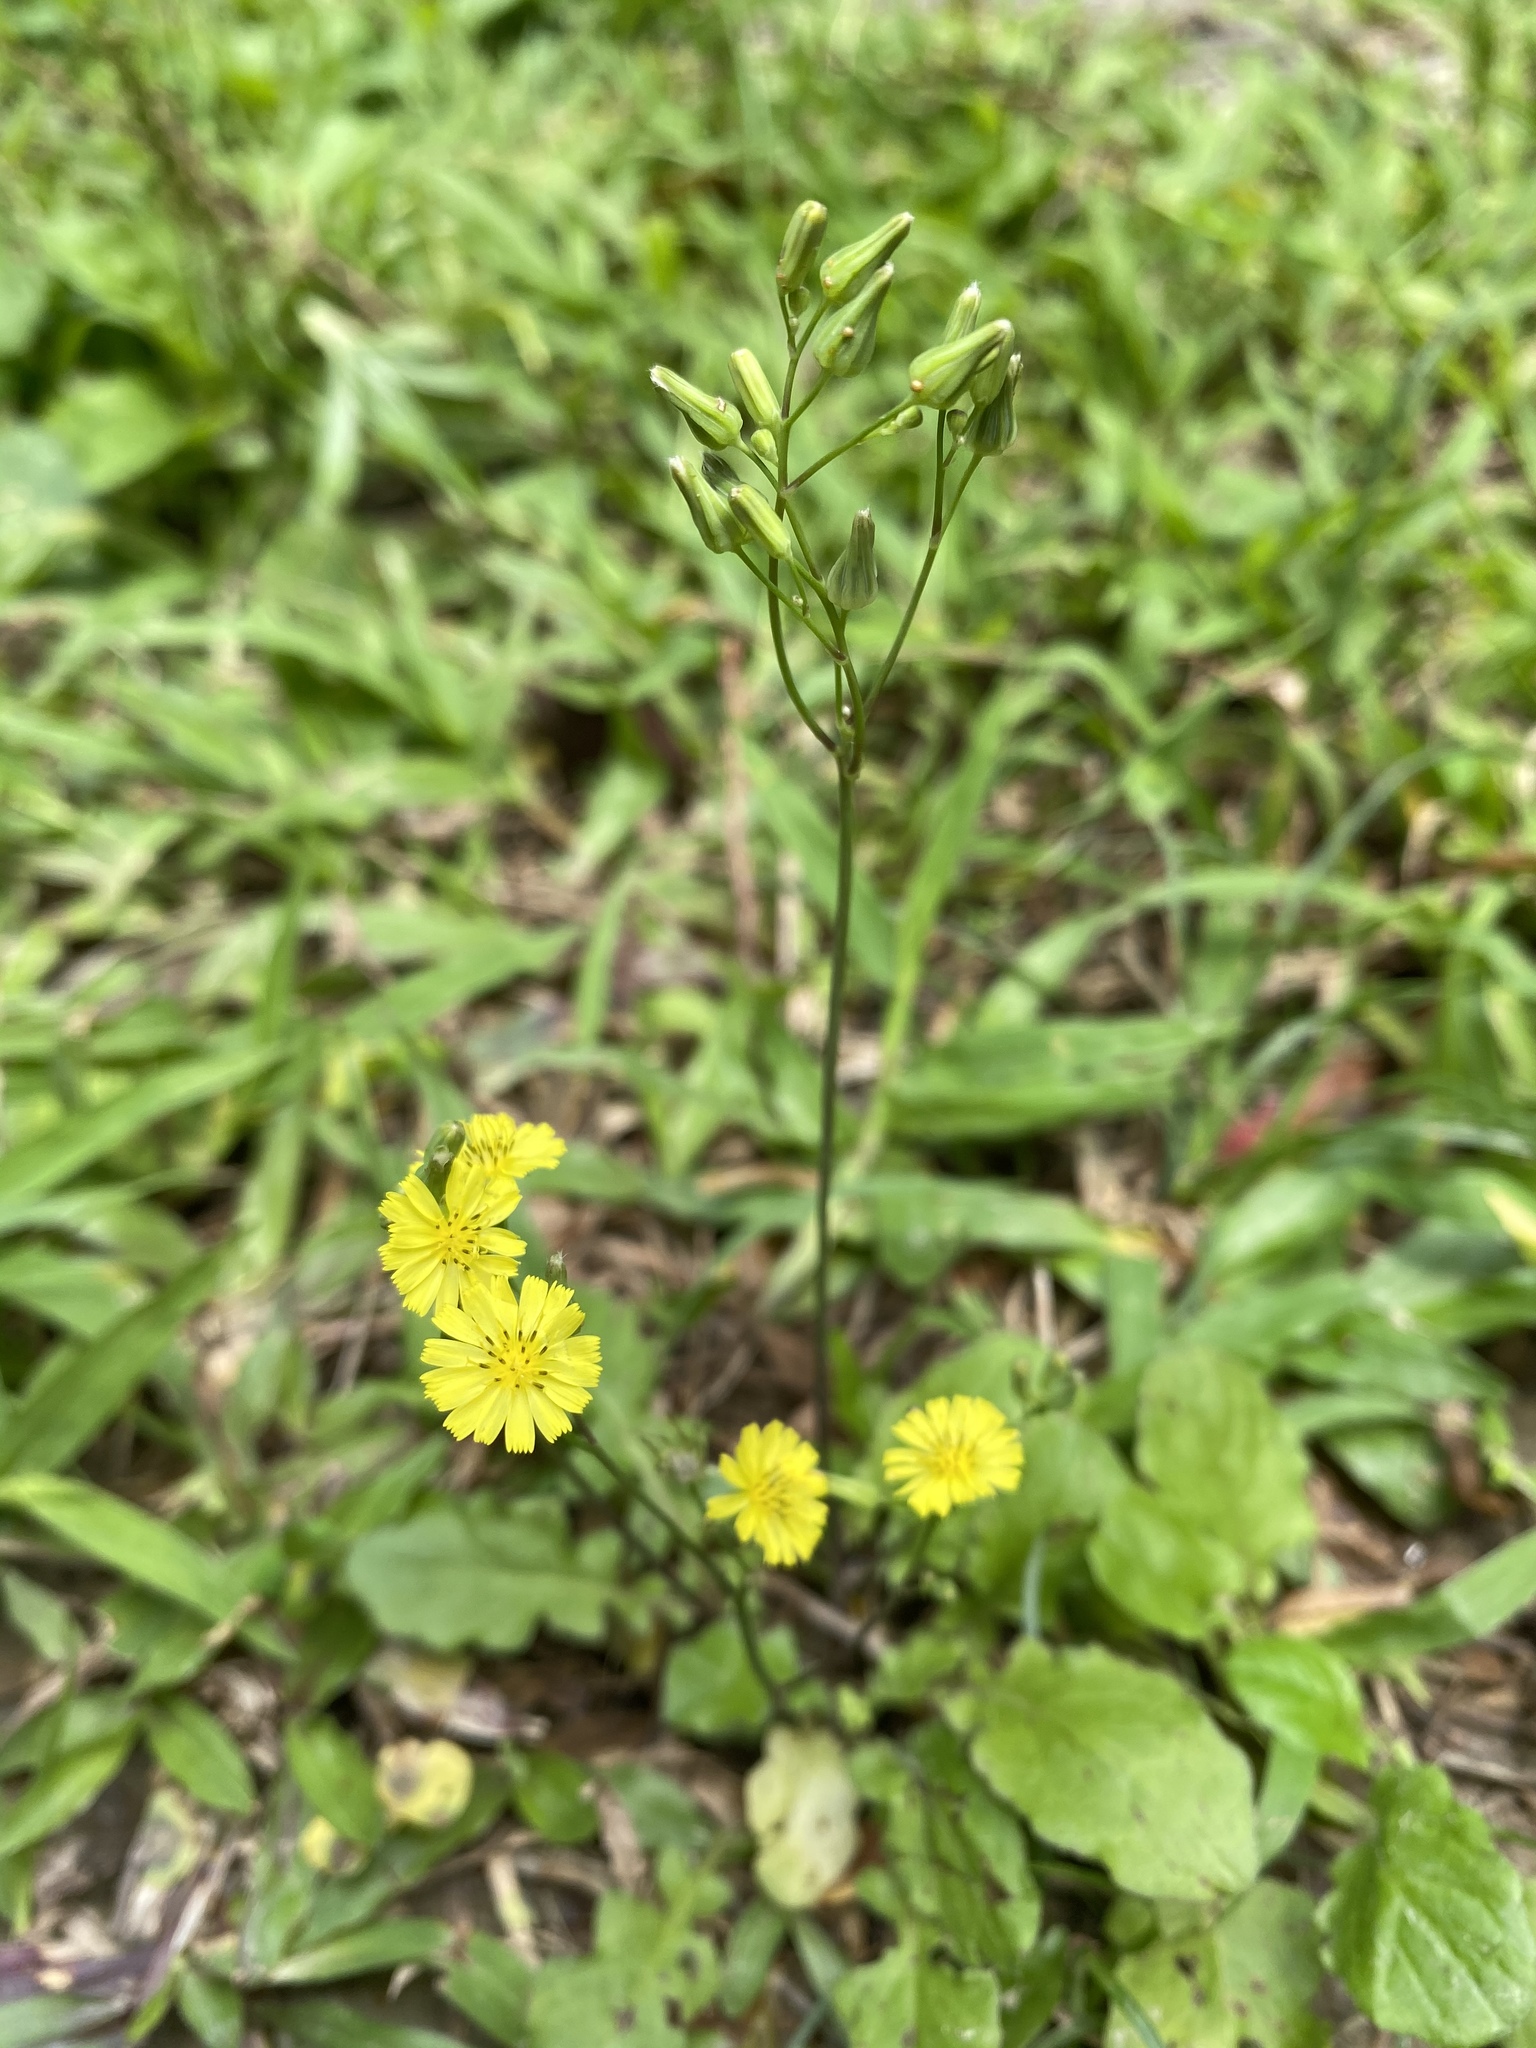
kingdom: Plantae
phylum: Tracheophyta
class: Magnoliopsida
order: Asterales
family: Asteraceae
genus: Youngia
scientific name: Youngia japonica
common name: Oriental false hawksbeard
